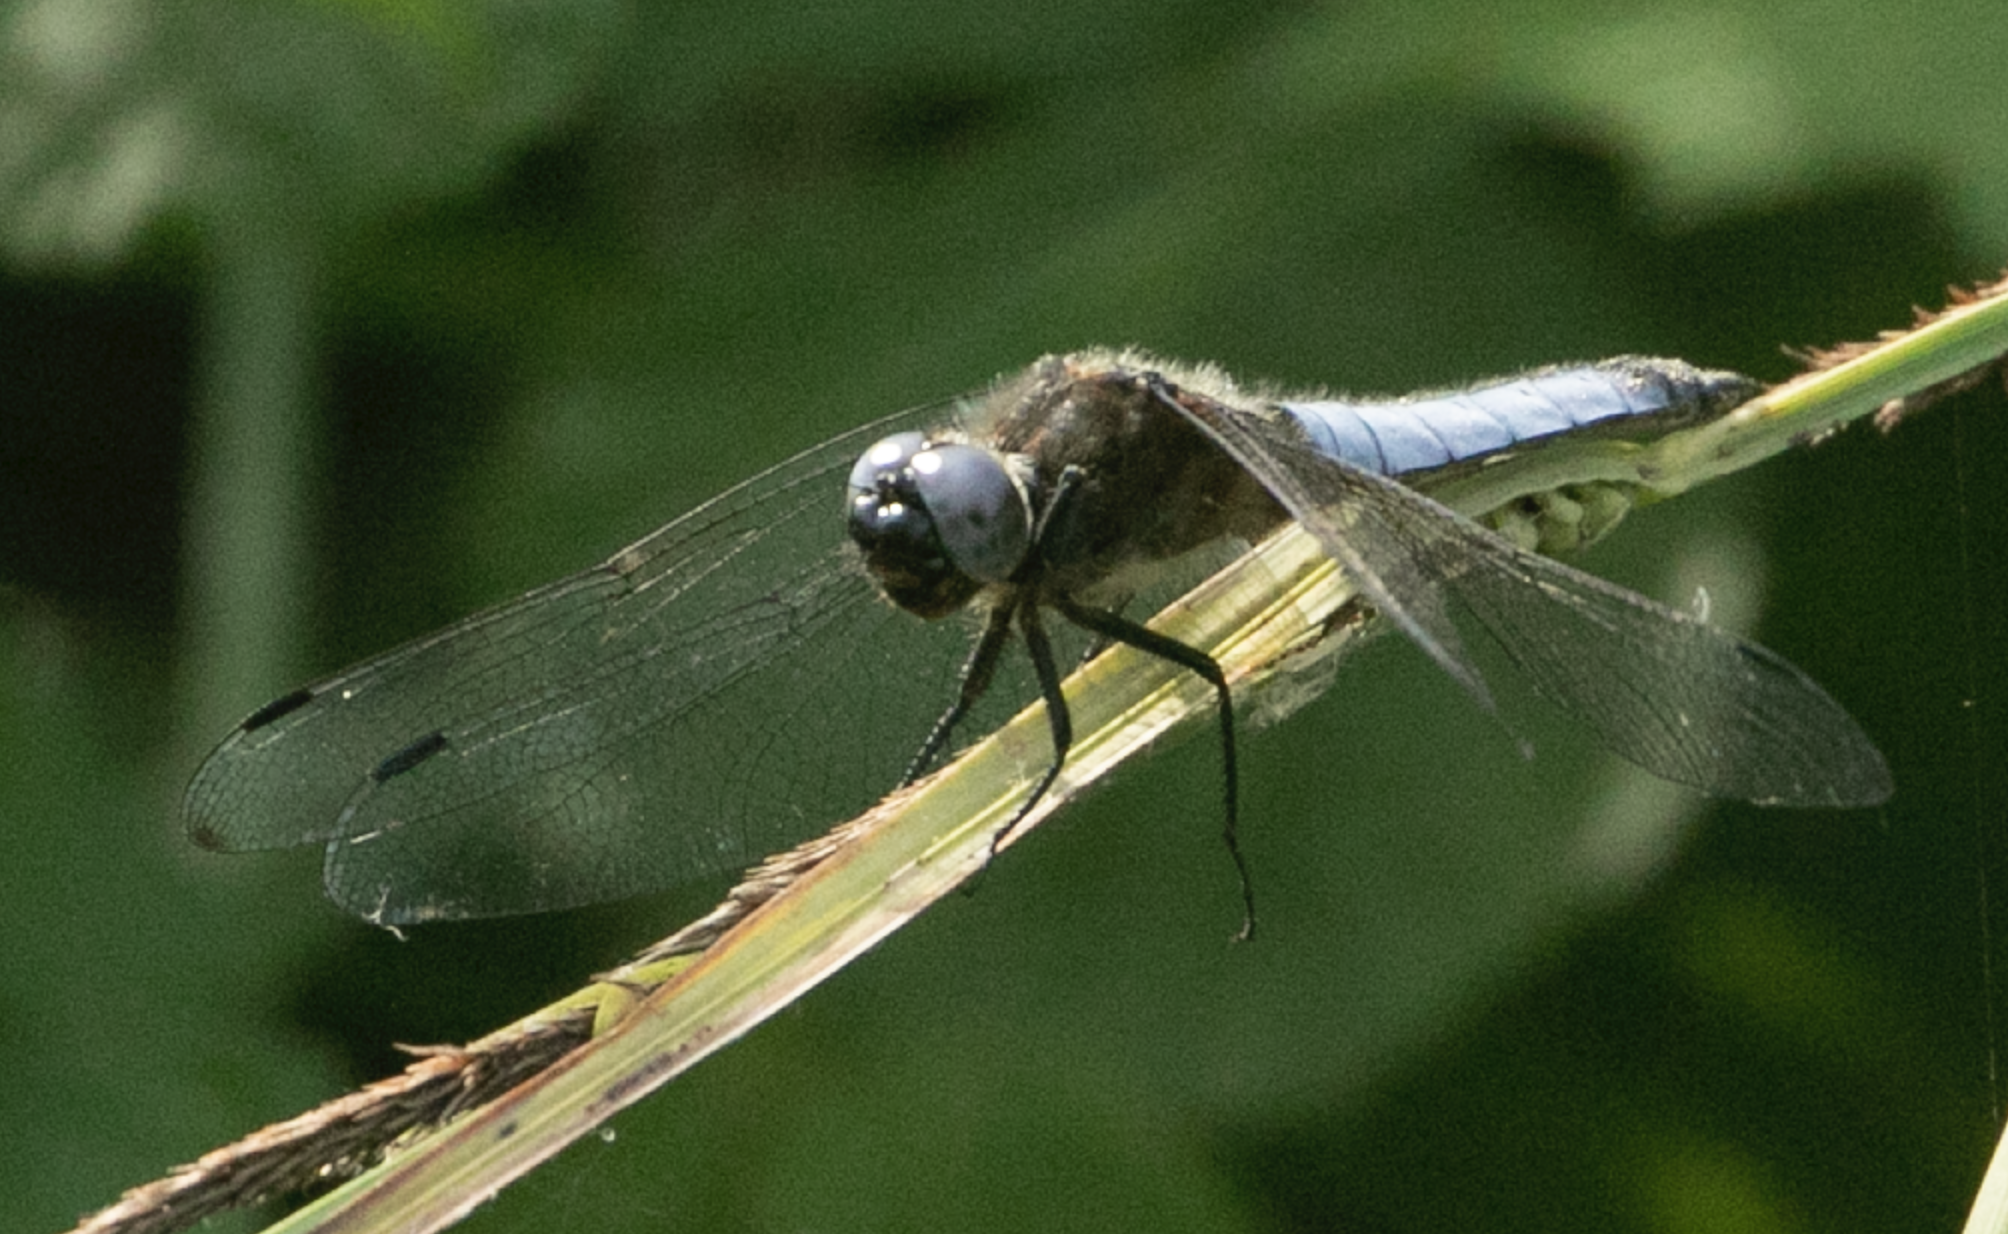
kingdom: Animalia
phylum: Arthropoda
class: Insecta
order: Odonata
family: Libellulidae
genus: Libellula
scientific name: Libellula fulva
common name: Blue chaser
